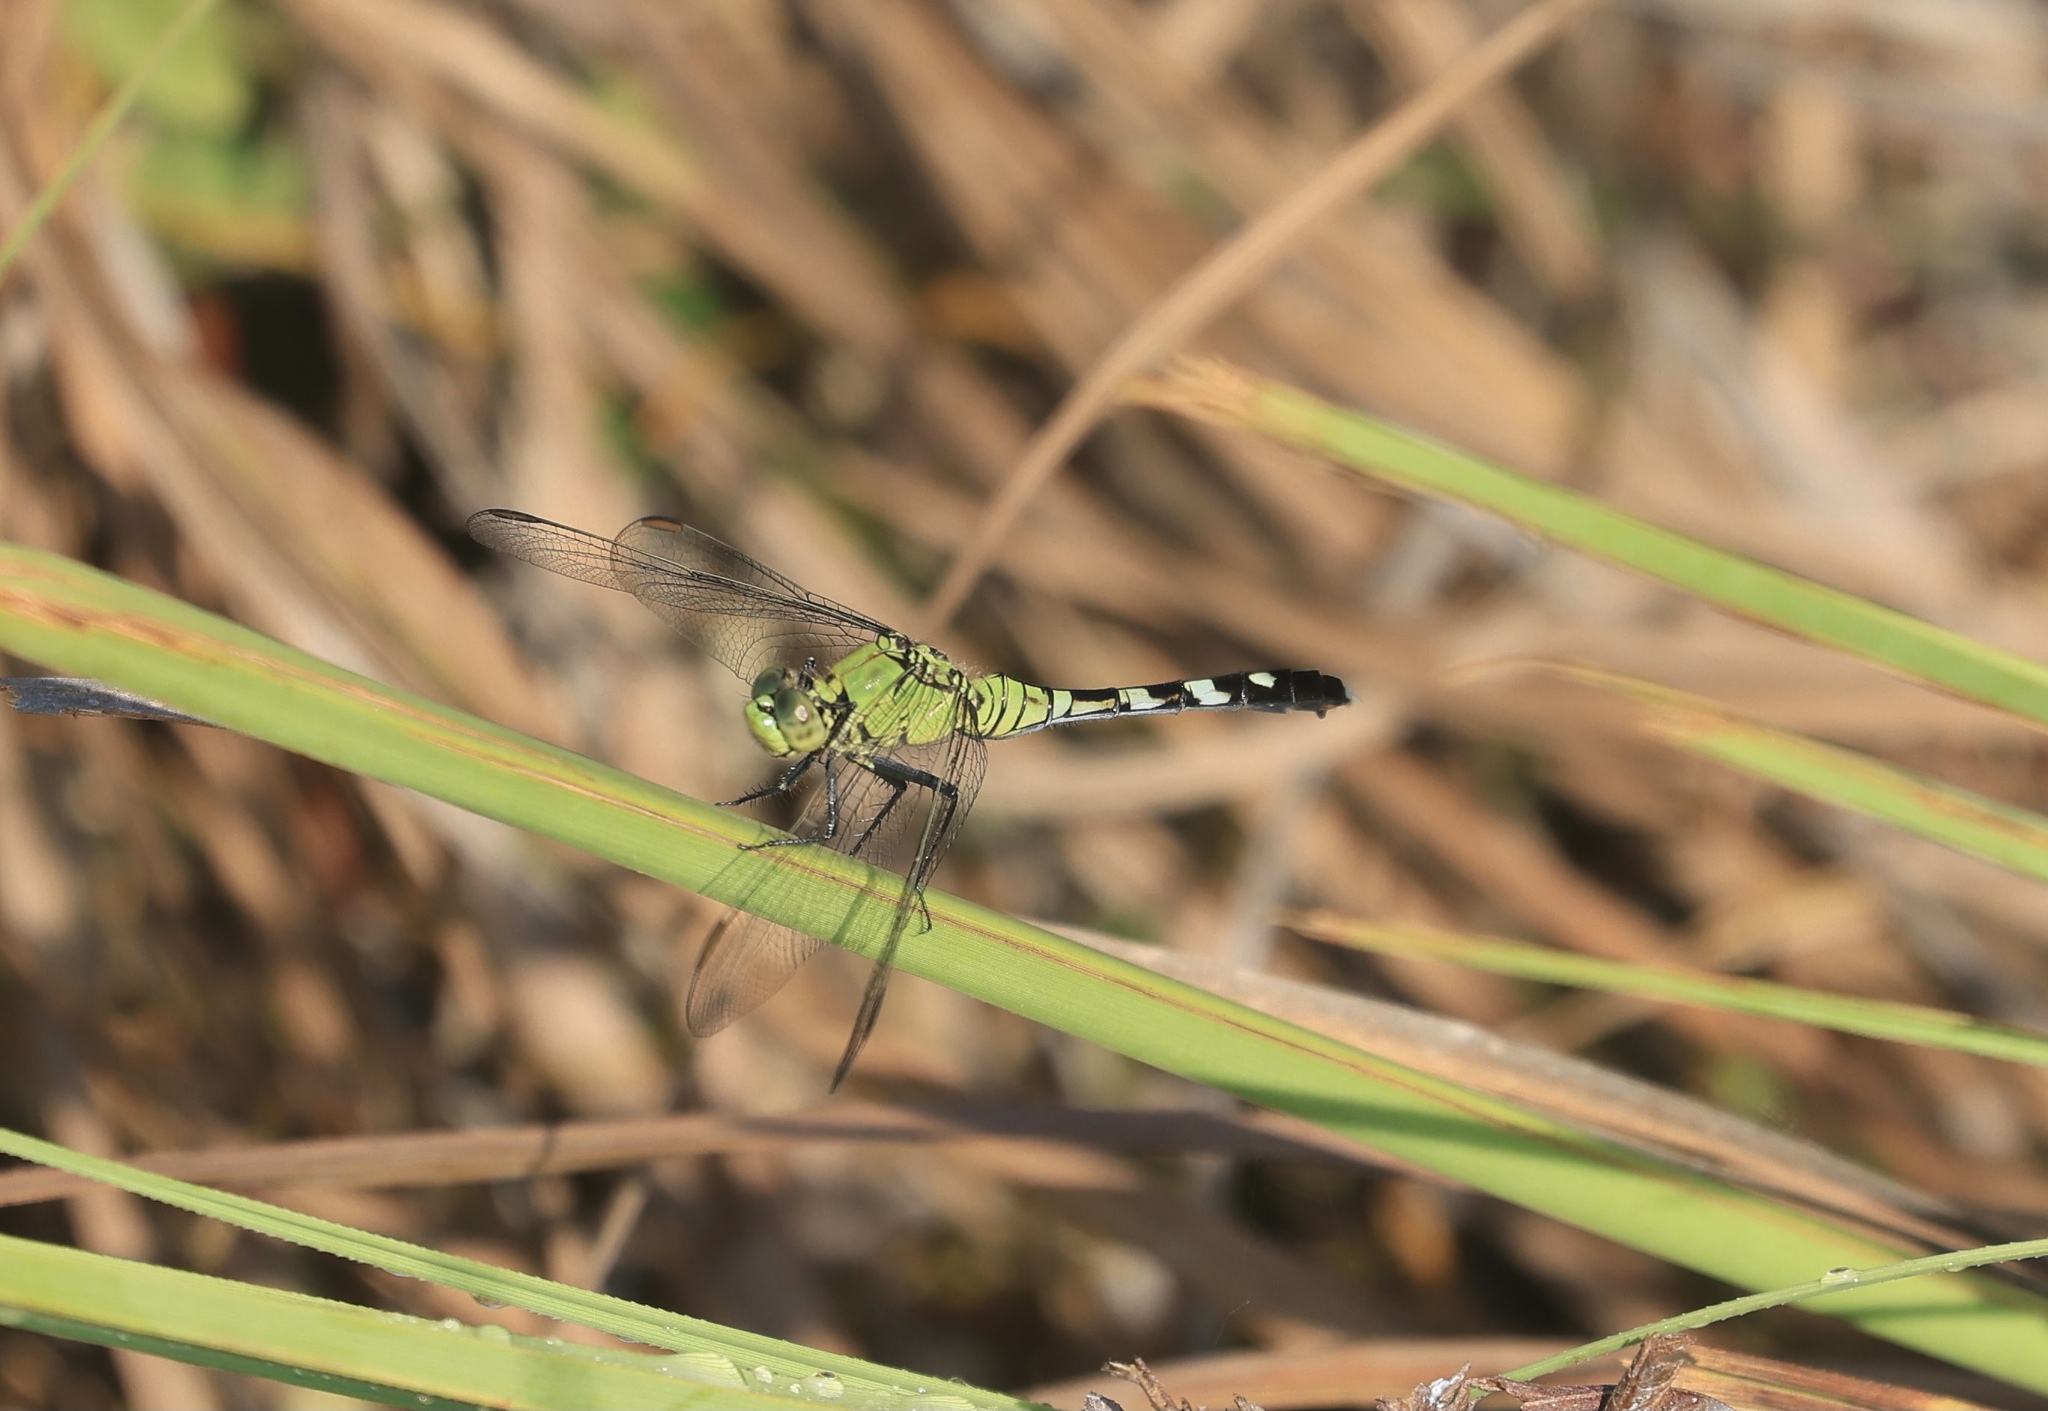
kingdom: Animalia
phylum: Arthropoda
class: Insecta
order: Odonata
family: Libellulidae
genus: Erythemis
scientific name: Erythemis simplicicollis
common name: Eastern pondhawk
